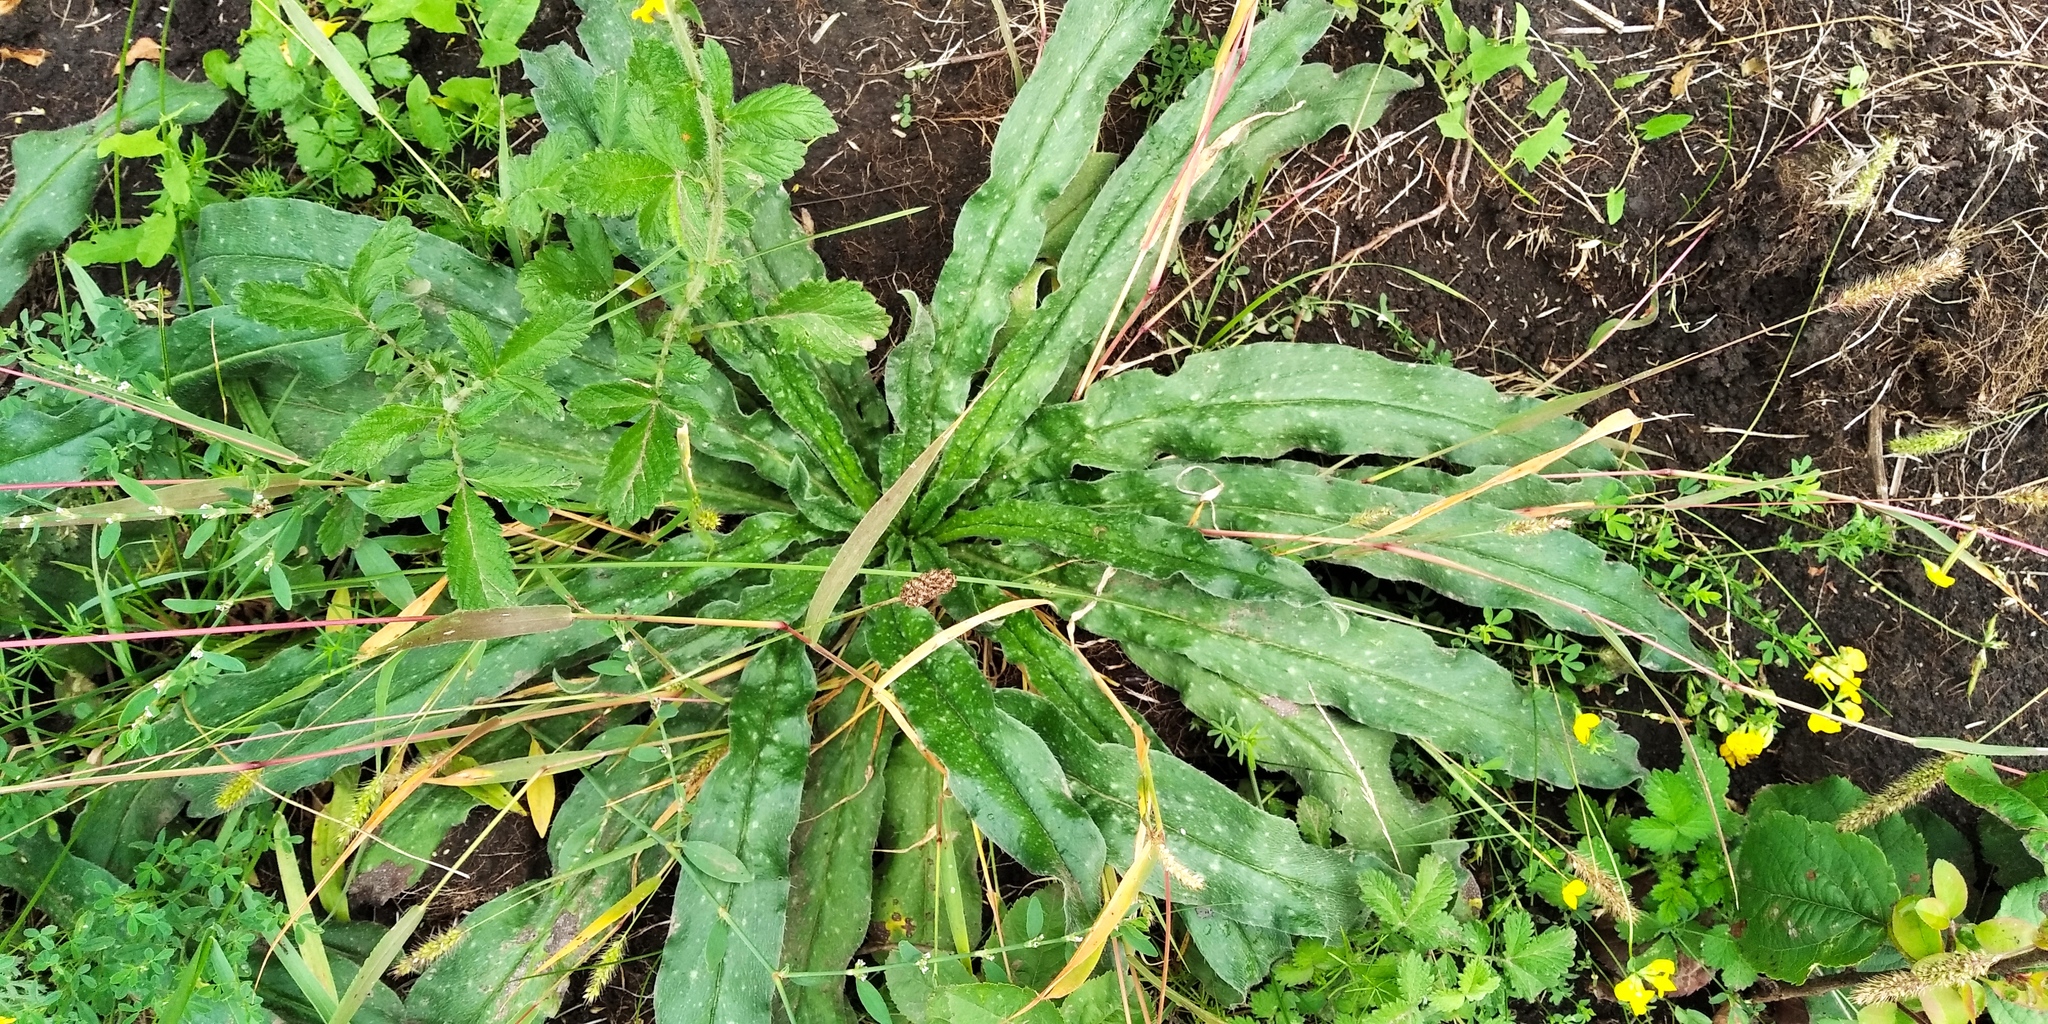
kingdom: Plantae
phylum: Tracheophyta
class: Magnoliopsida
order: Boraginales
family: Boraginaceae
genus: Anchusa
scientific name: Anchusa officinalis
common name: Alkanet
